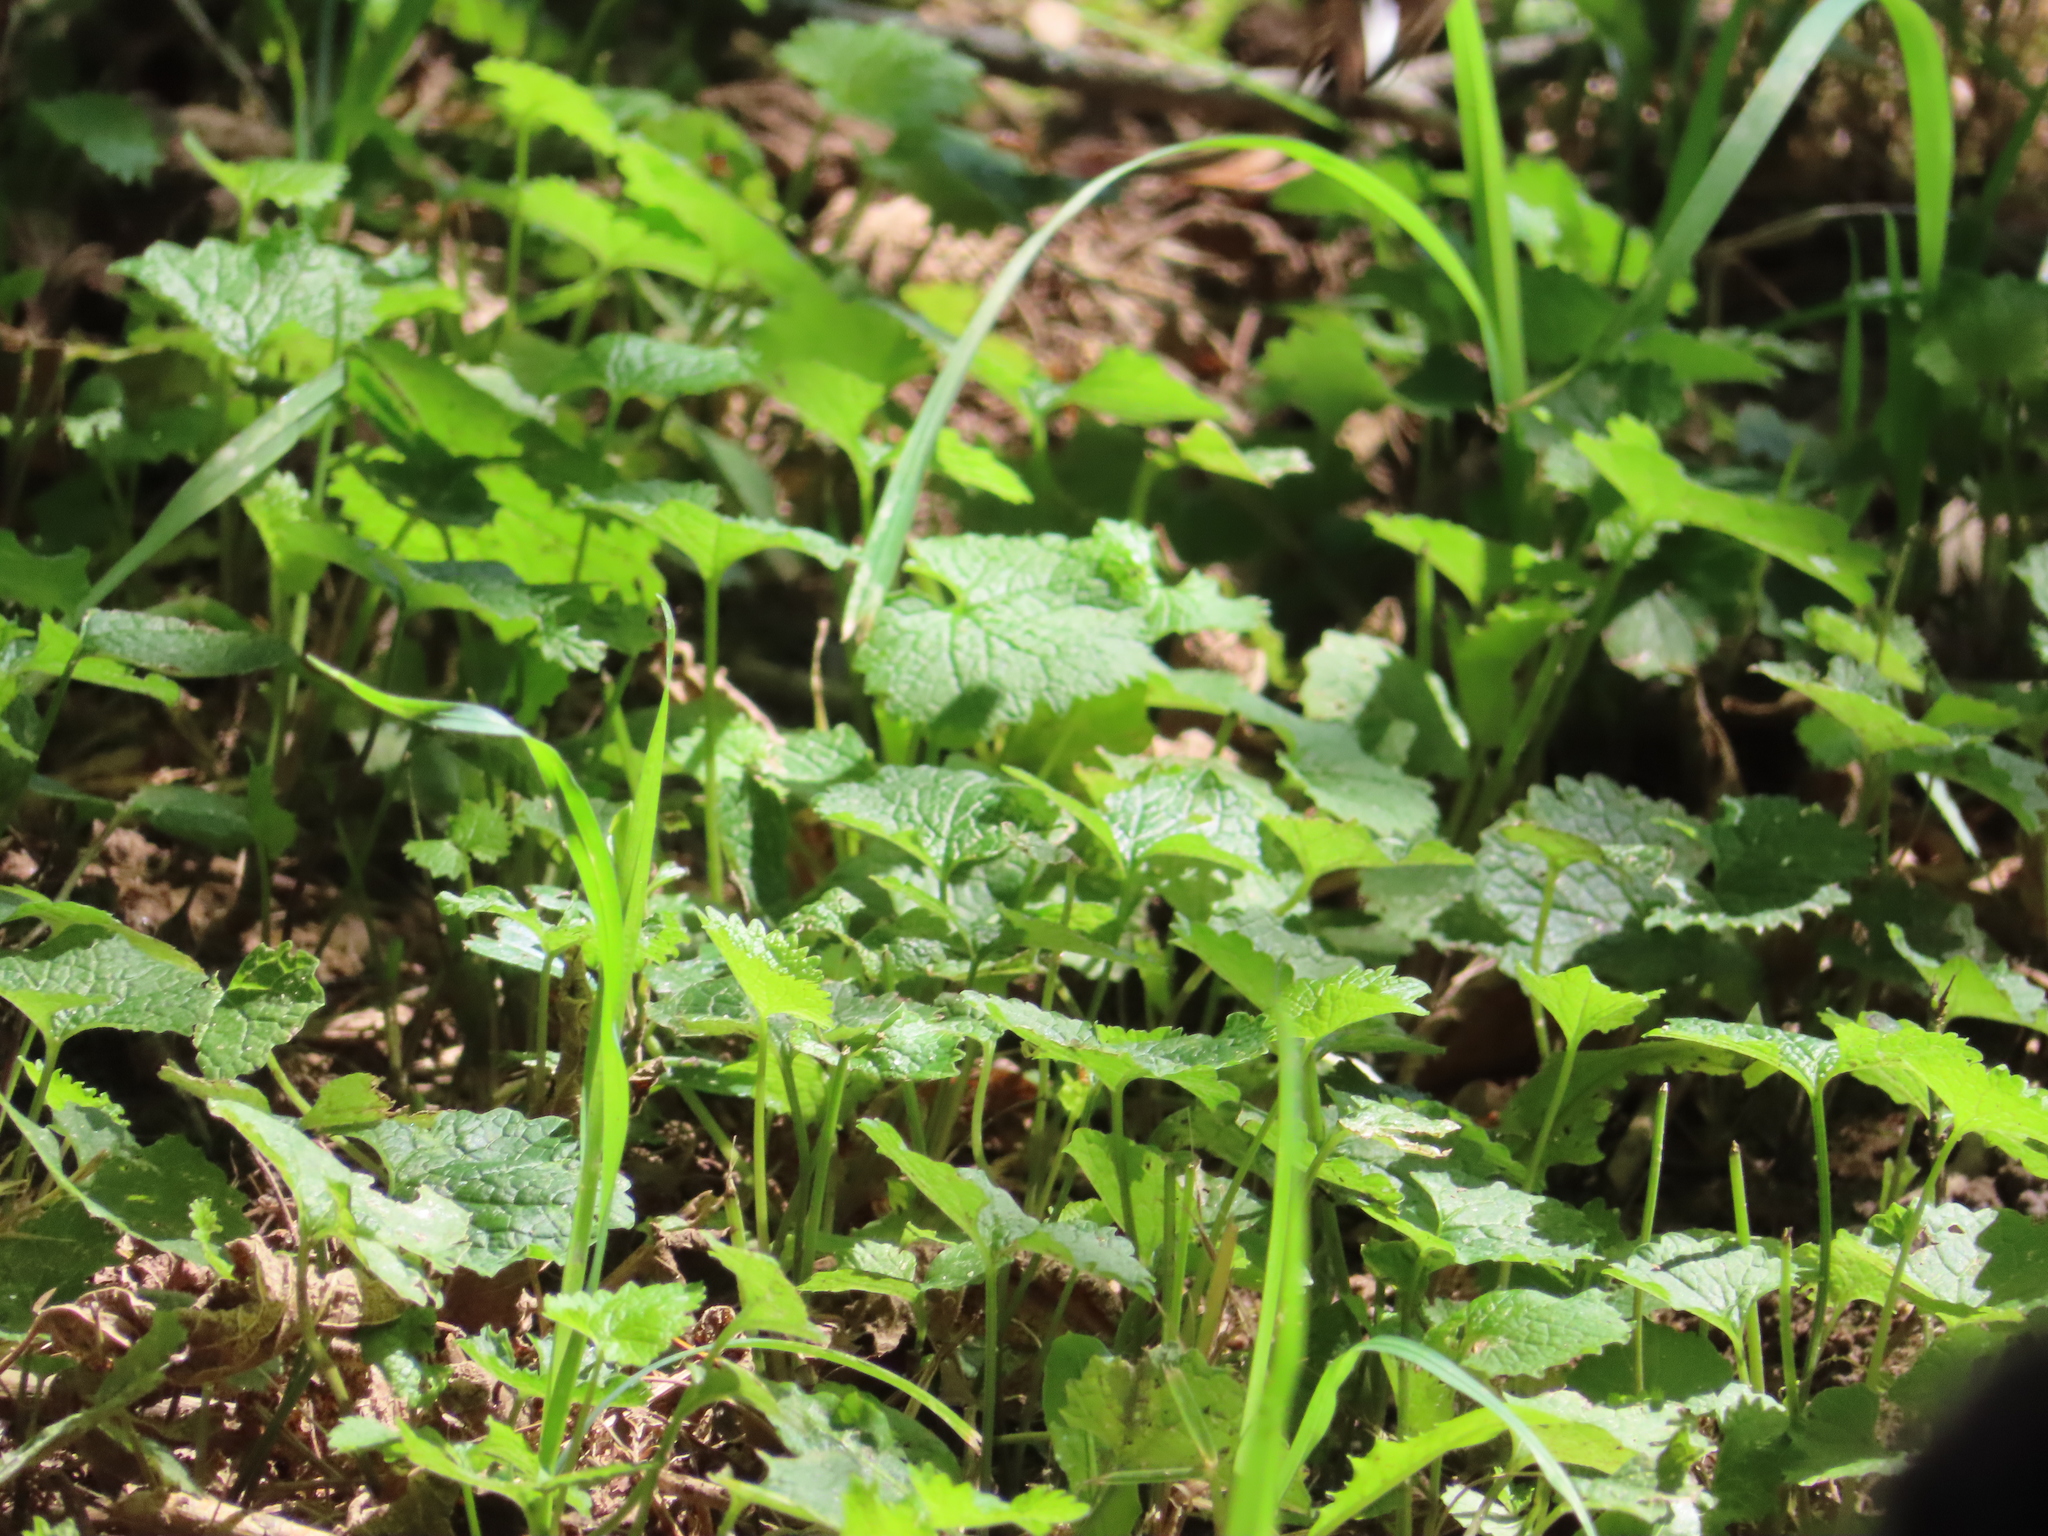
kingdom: Plantae
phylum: Tracheophyta
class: Magnoliopsida
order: Brassicales
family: Brassicaceae
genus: Alliaria
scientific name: Alliaria petiolata
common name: Garlic mustard
